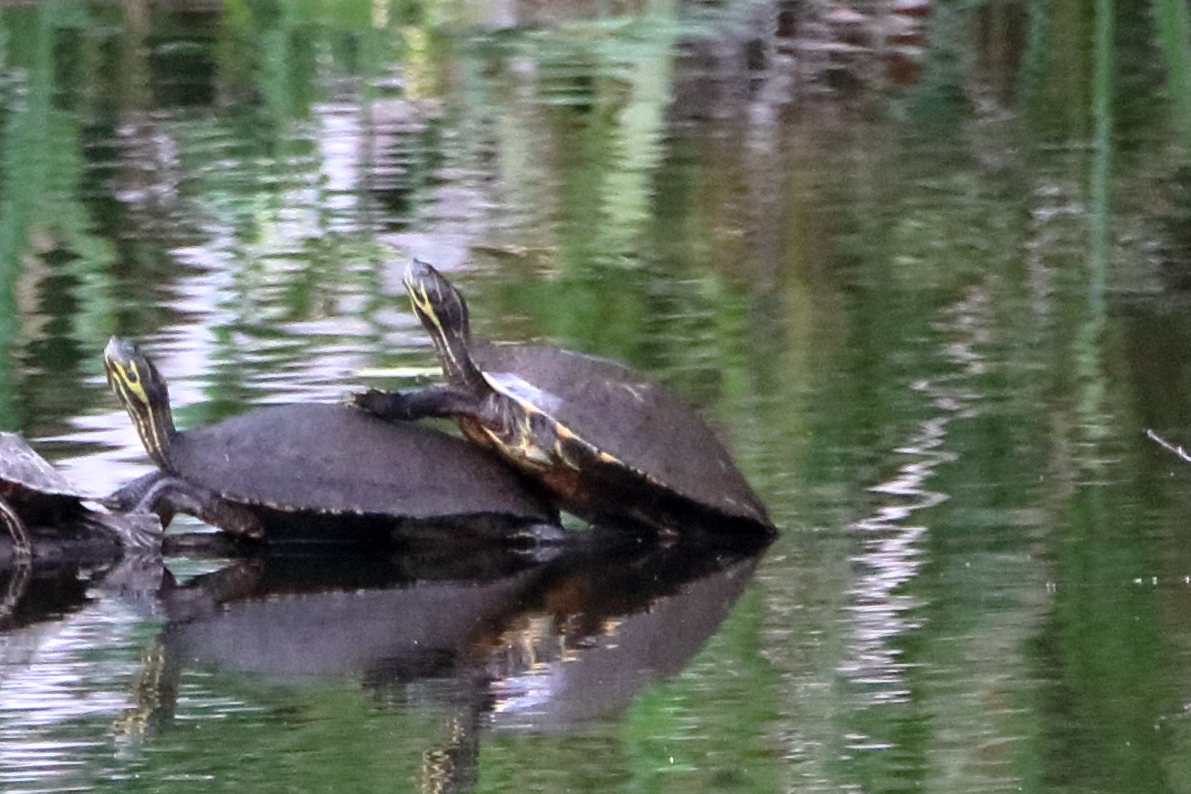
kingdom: Animalia
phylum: Chordata
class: Testudines
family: Emydidae
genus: Pseudemys
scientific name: Pseudemys concinna
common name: Eastern river cooter
